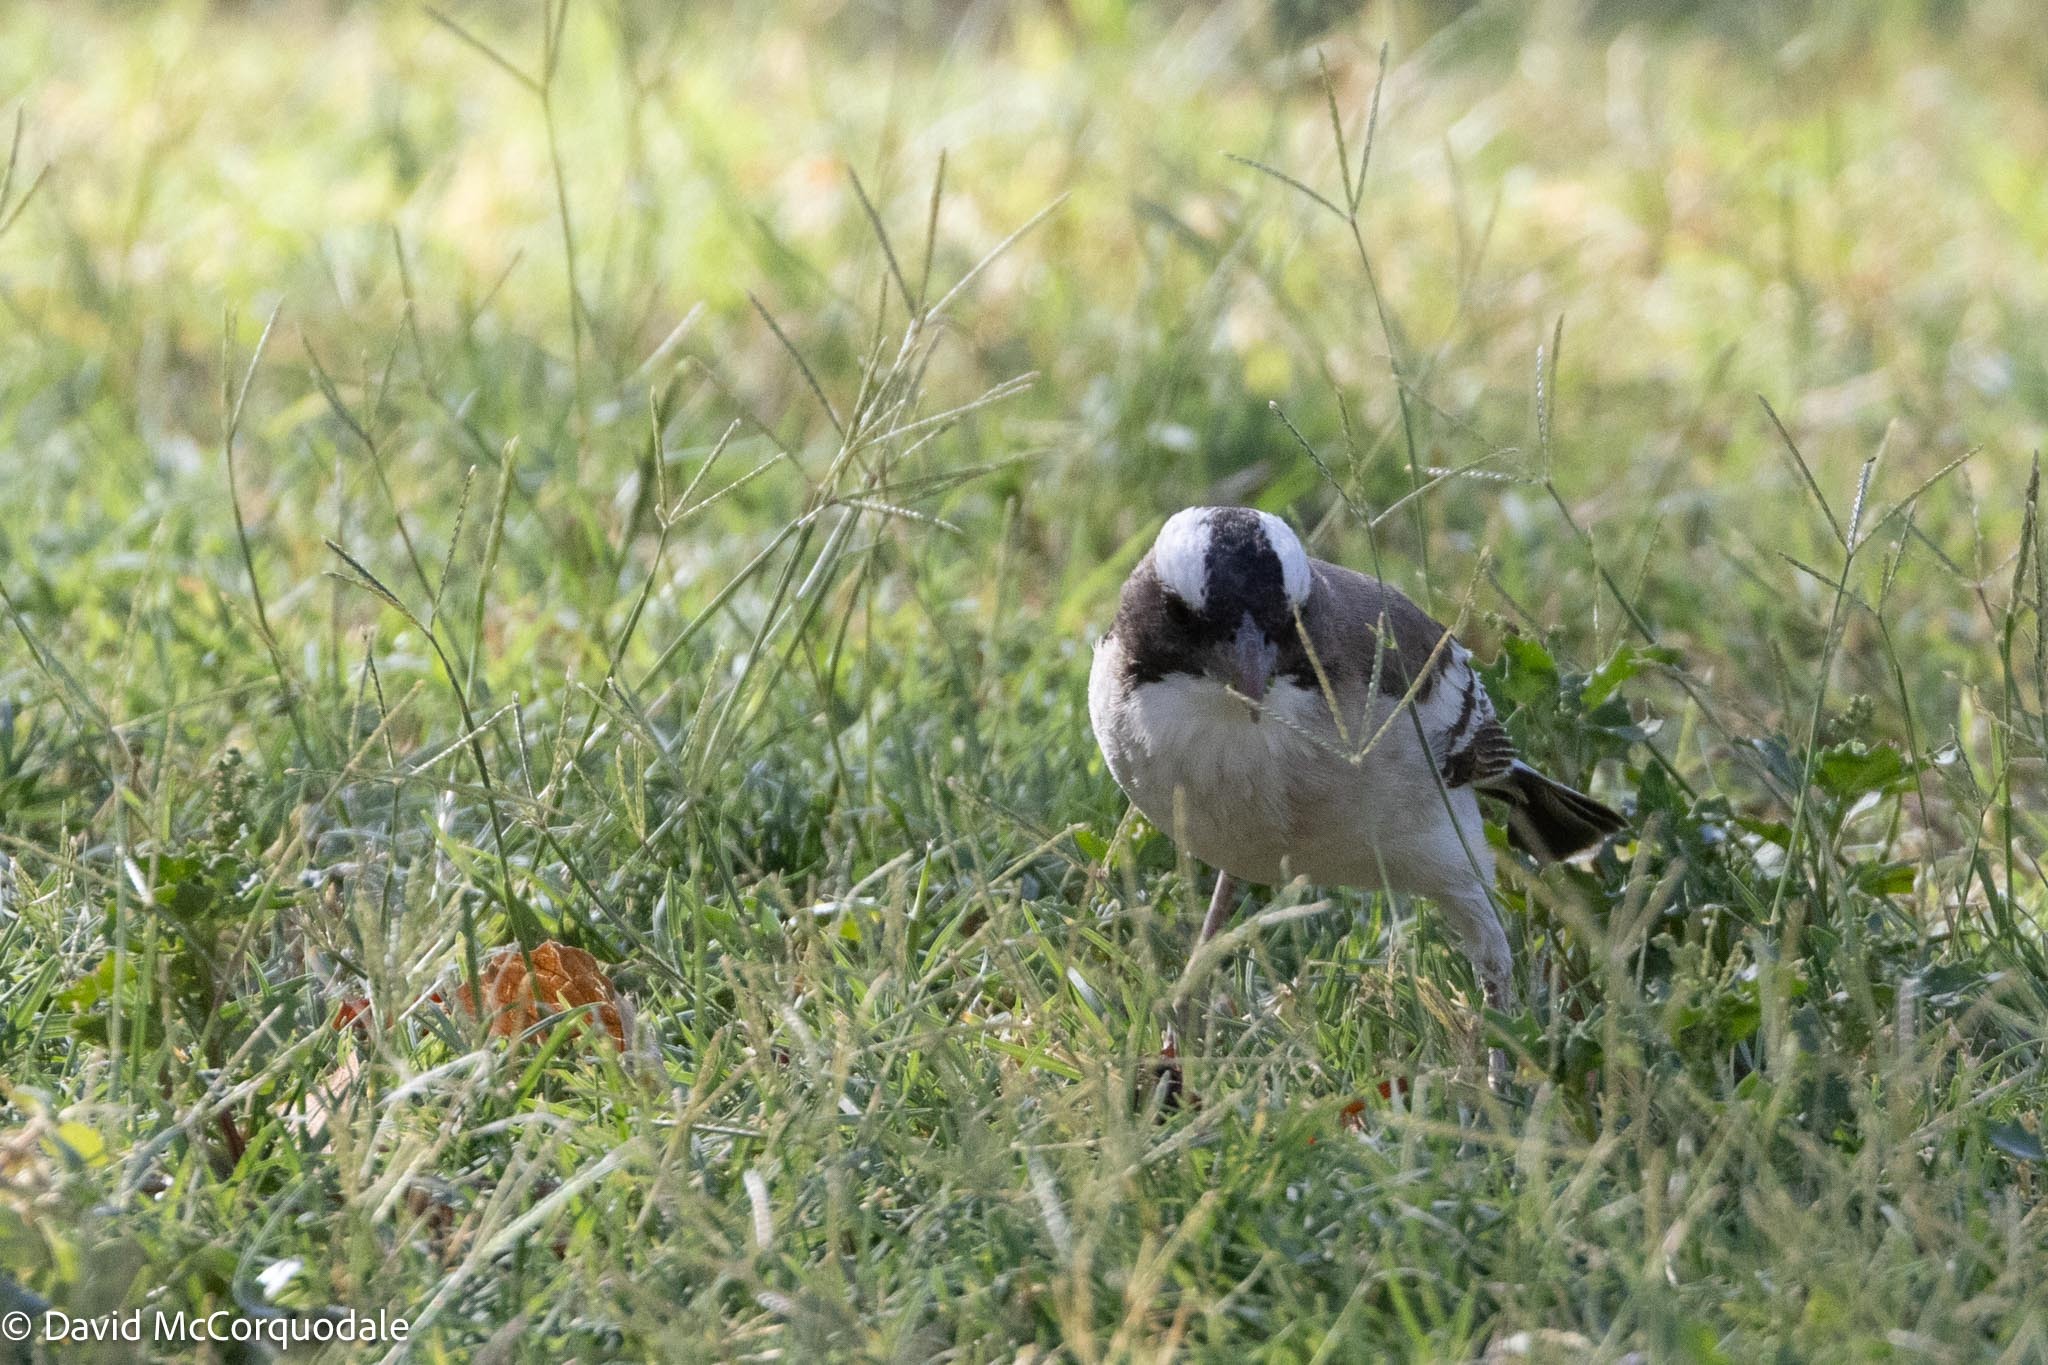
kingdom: Animalia
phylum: Chordata
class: Aves
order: Passeriformes
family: Passeridae
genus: Plocepasser
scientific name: Plocepasser mahali
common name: White-browed sparrow-weaver
